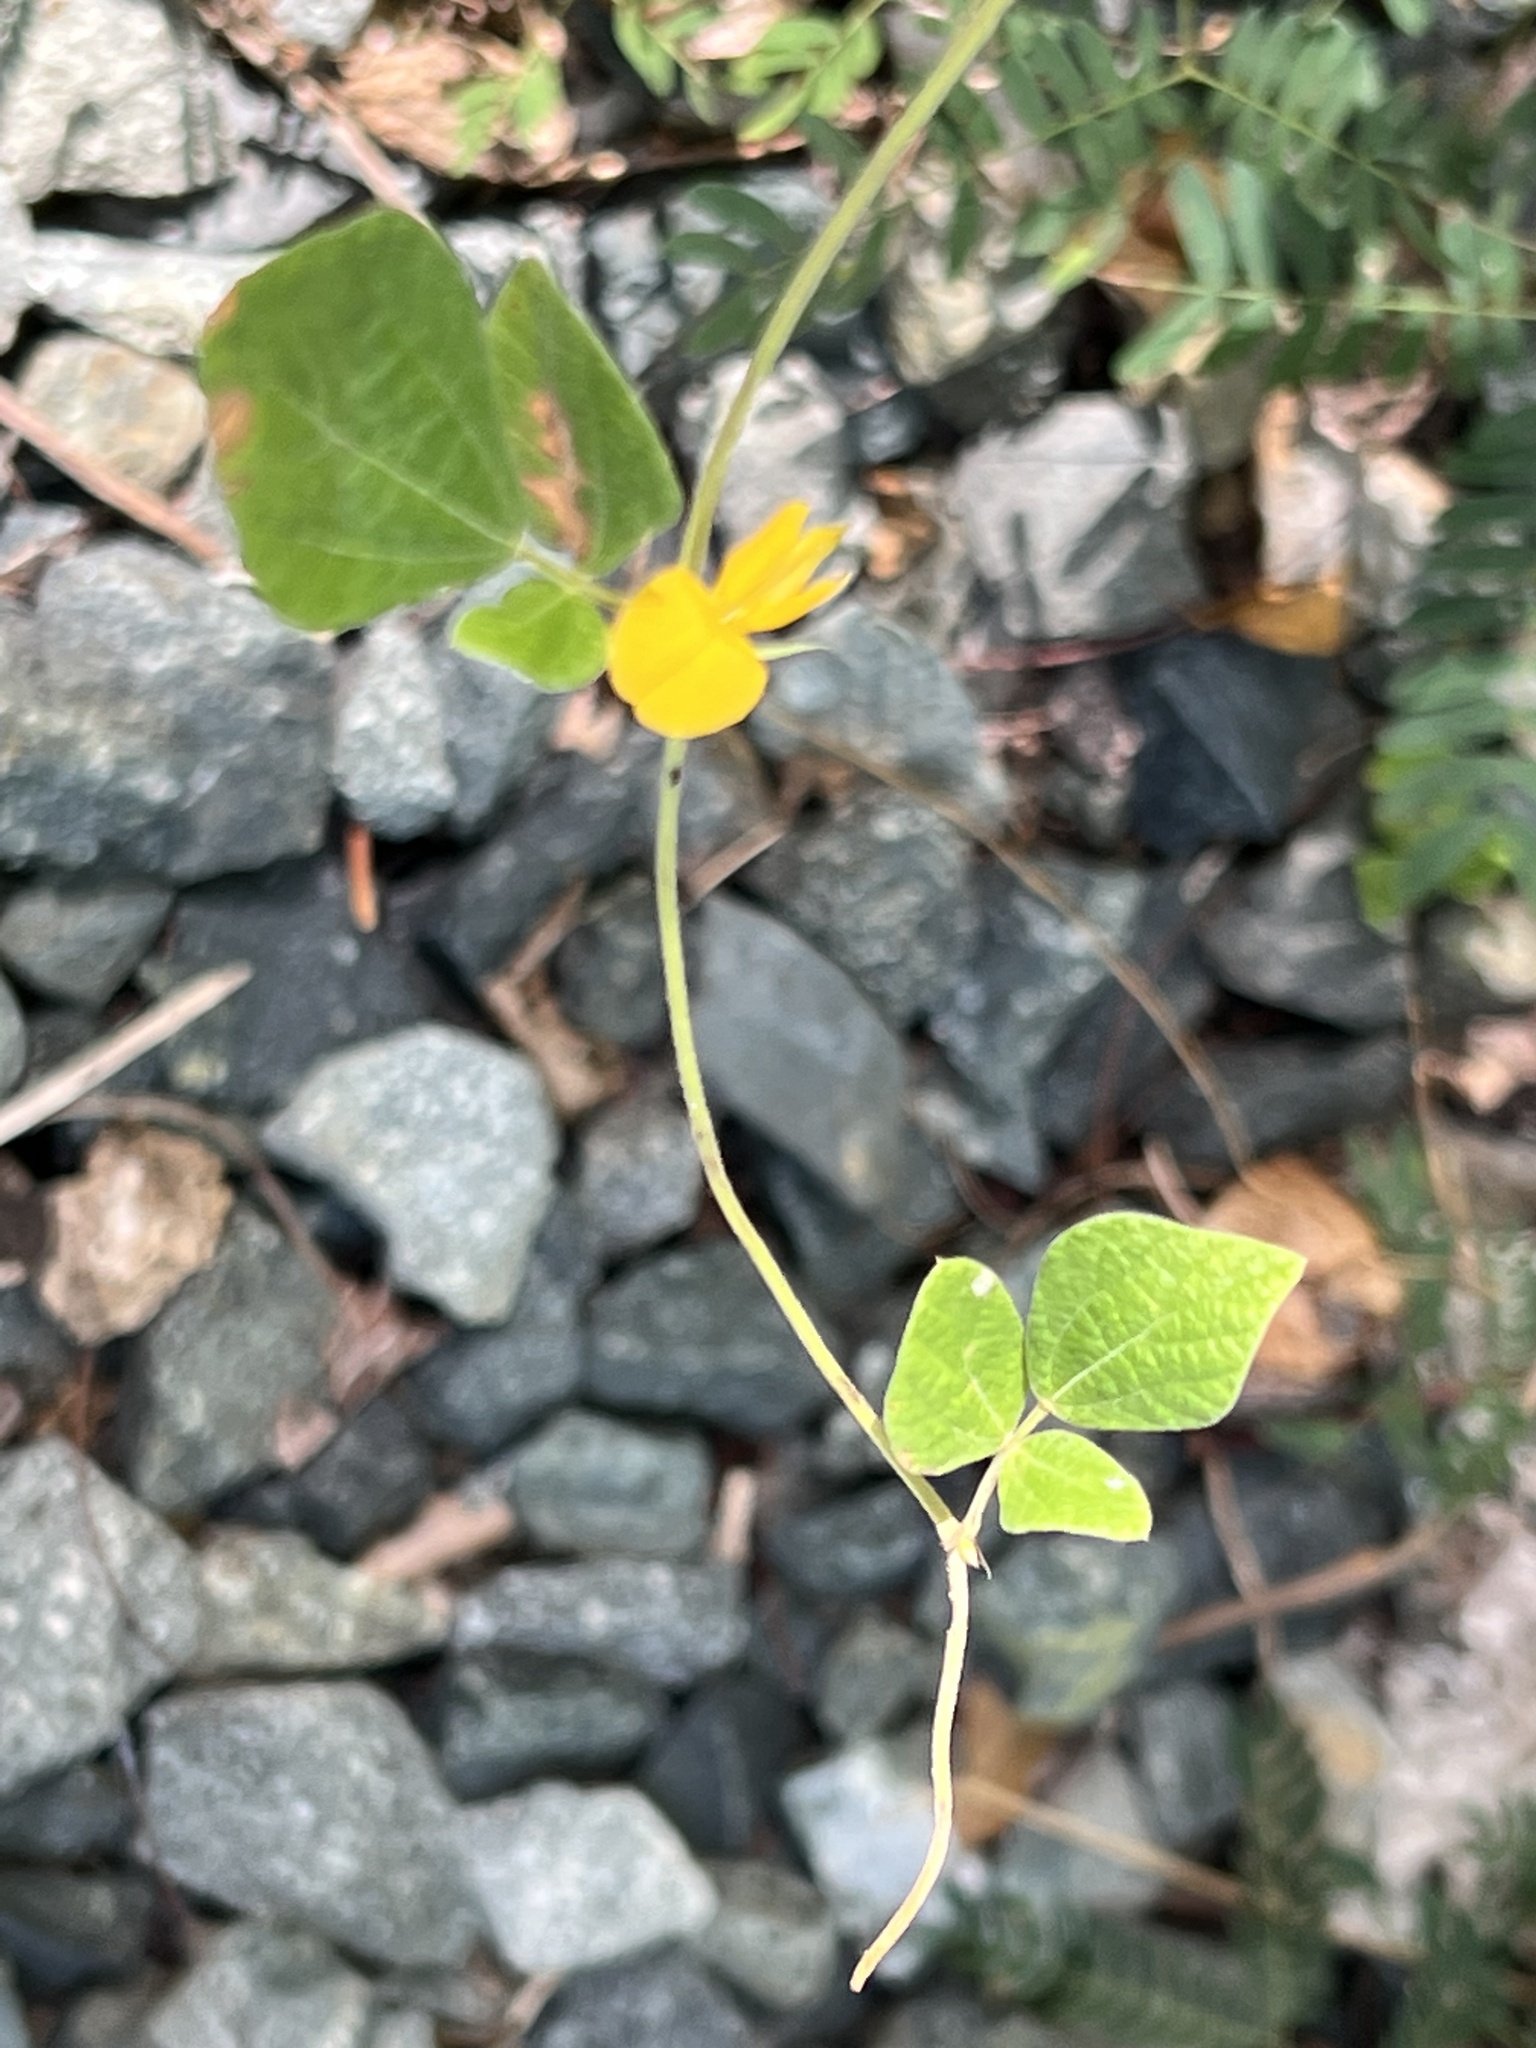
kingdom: Plantae
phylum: Tracheophyta
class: Magnoliopsida
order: Fabales
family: Fabaceae
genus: Rhynchosia
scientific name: Rhynchosia reticulata
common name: Pea withe
